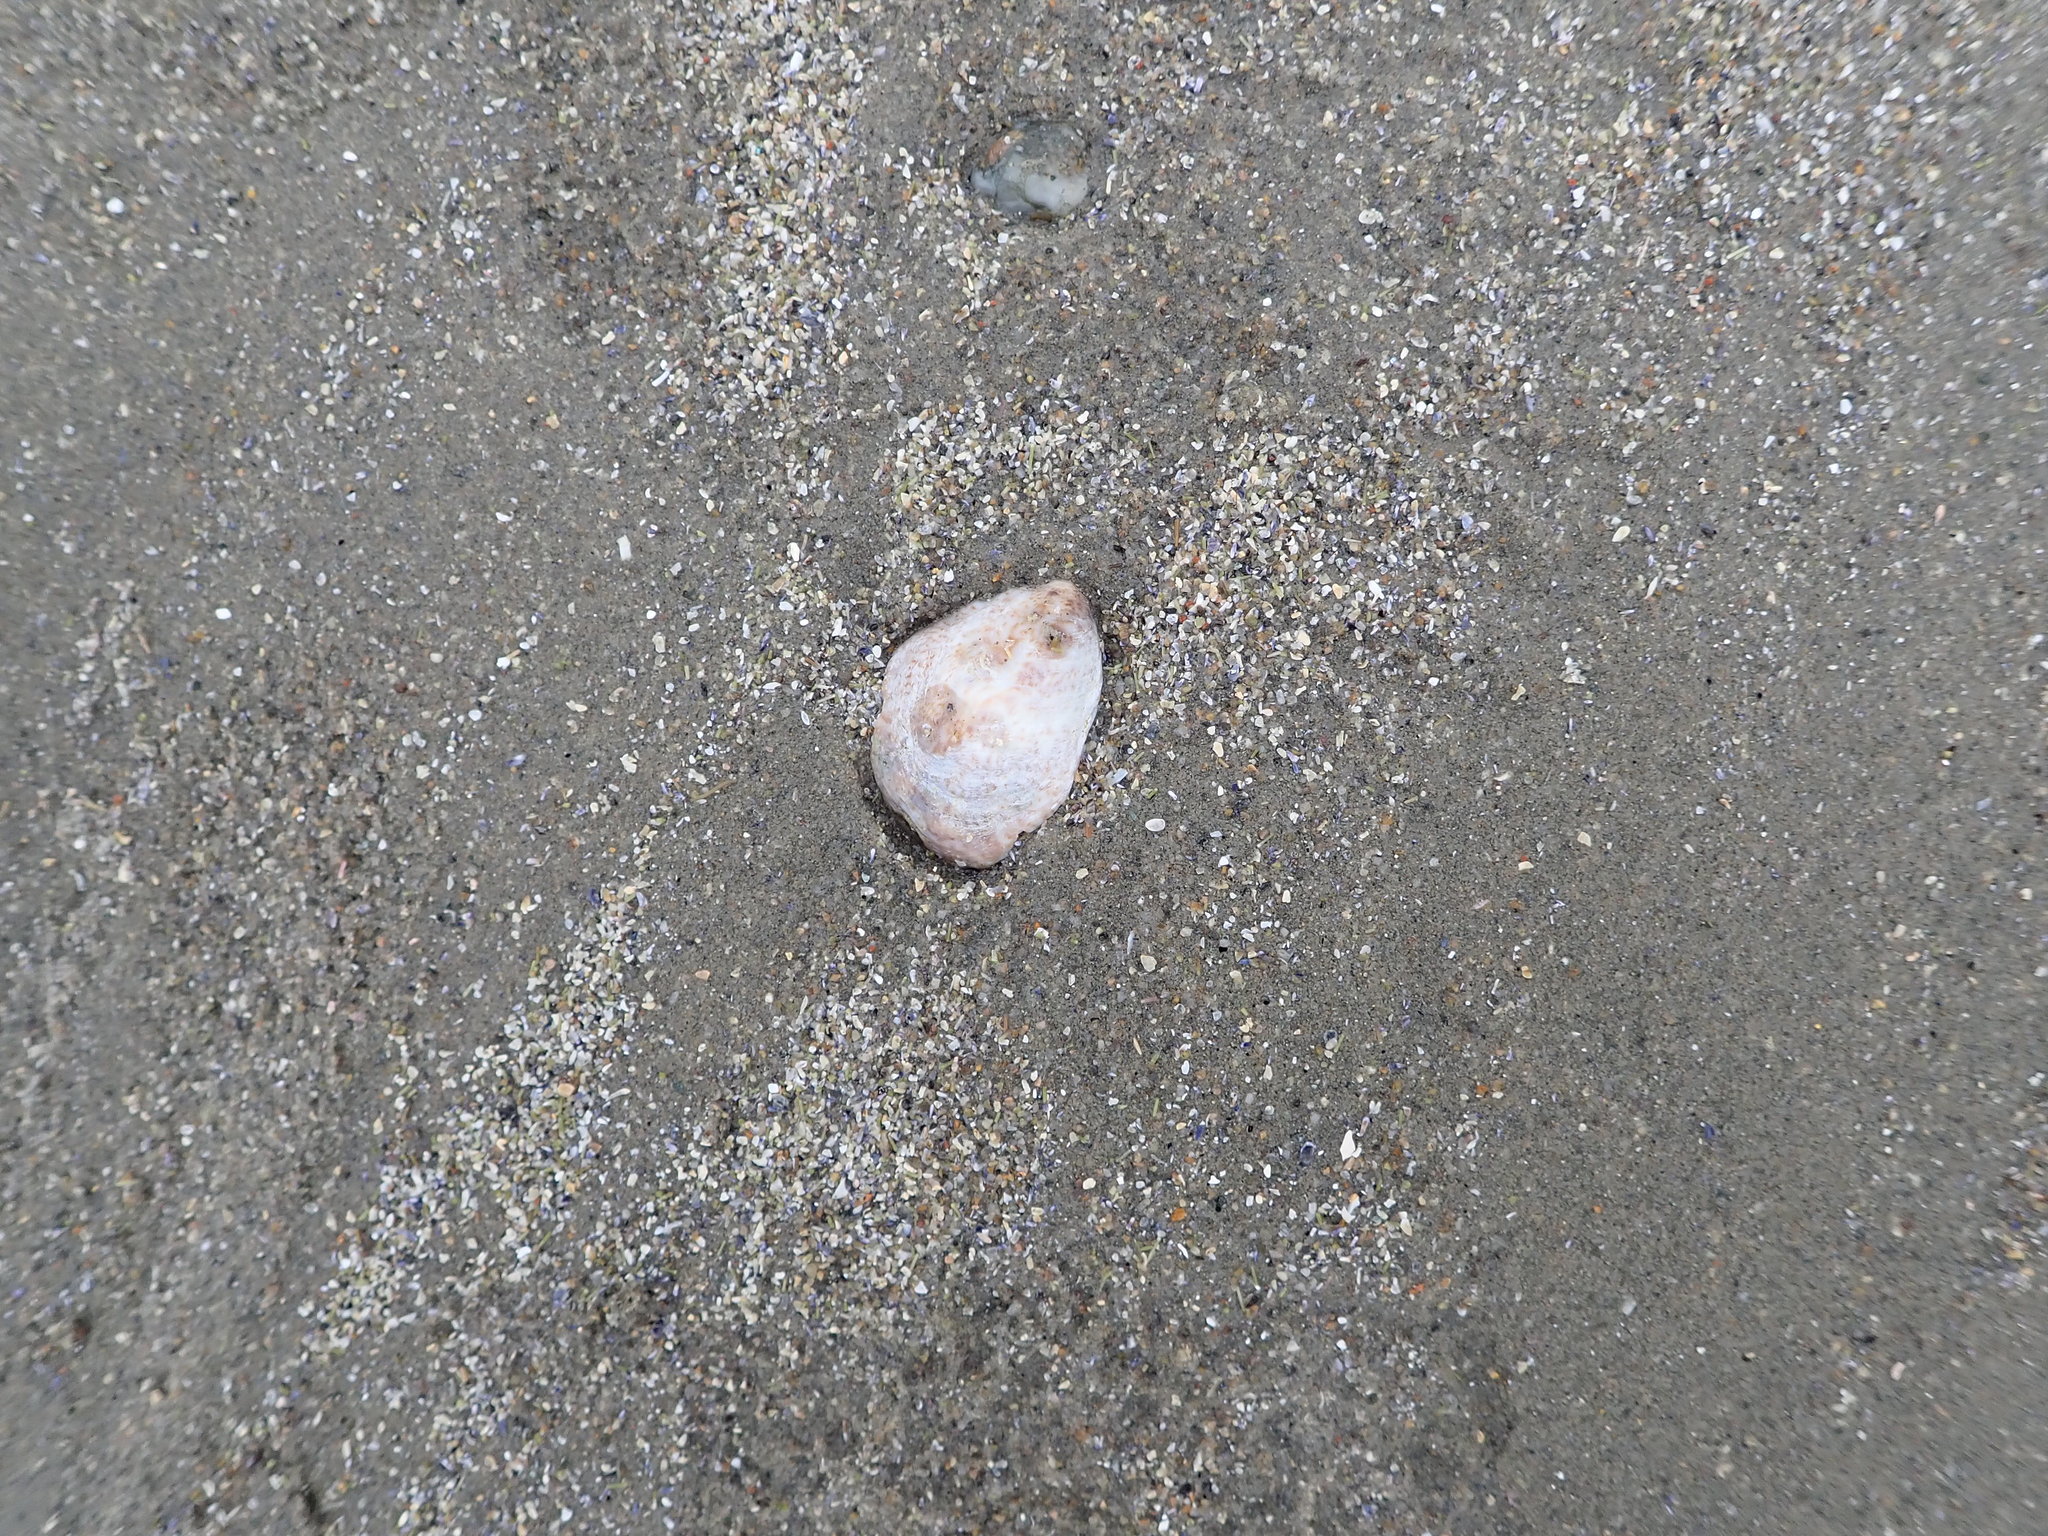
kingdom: Animalia
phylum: Mollusca
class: Gastropoda
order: Littorinimorpha
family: Calyptraeidae
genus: Crepidula
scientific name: Crepidula fornicata
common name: Slipper limpet
